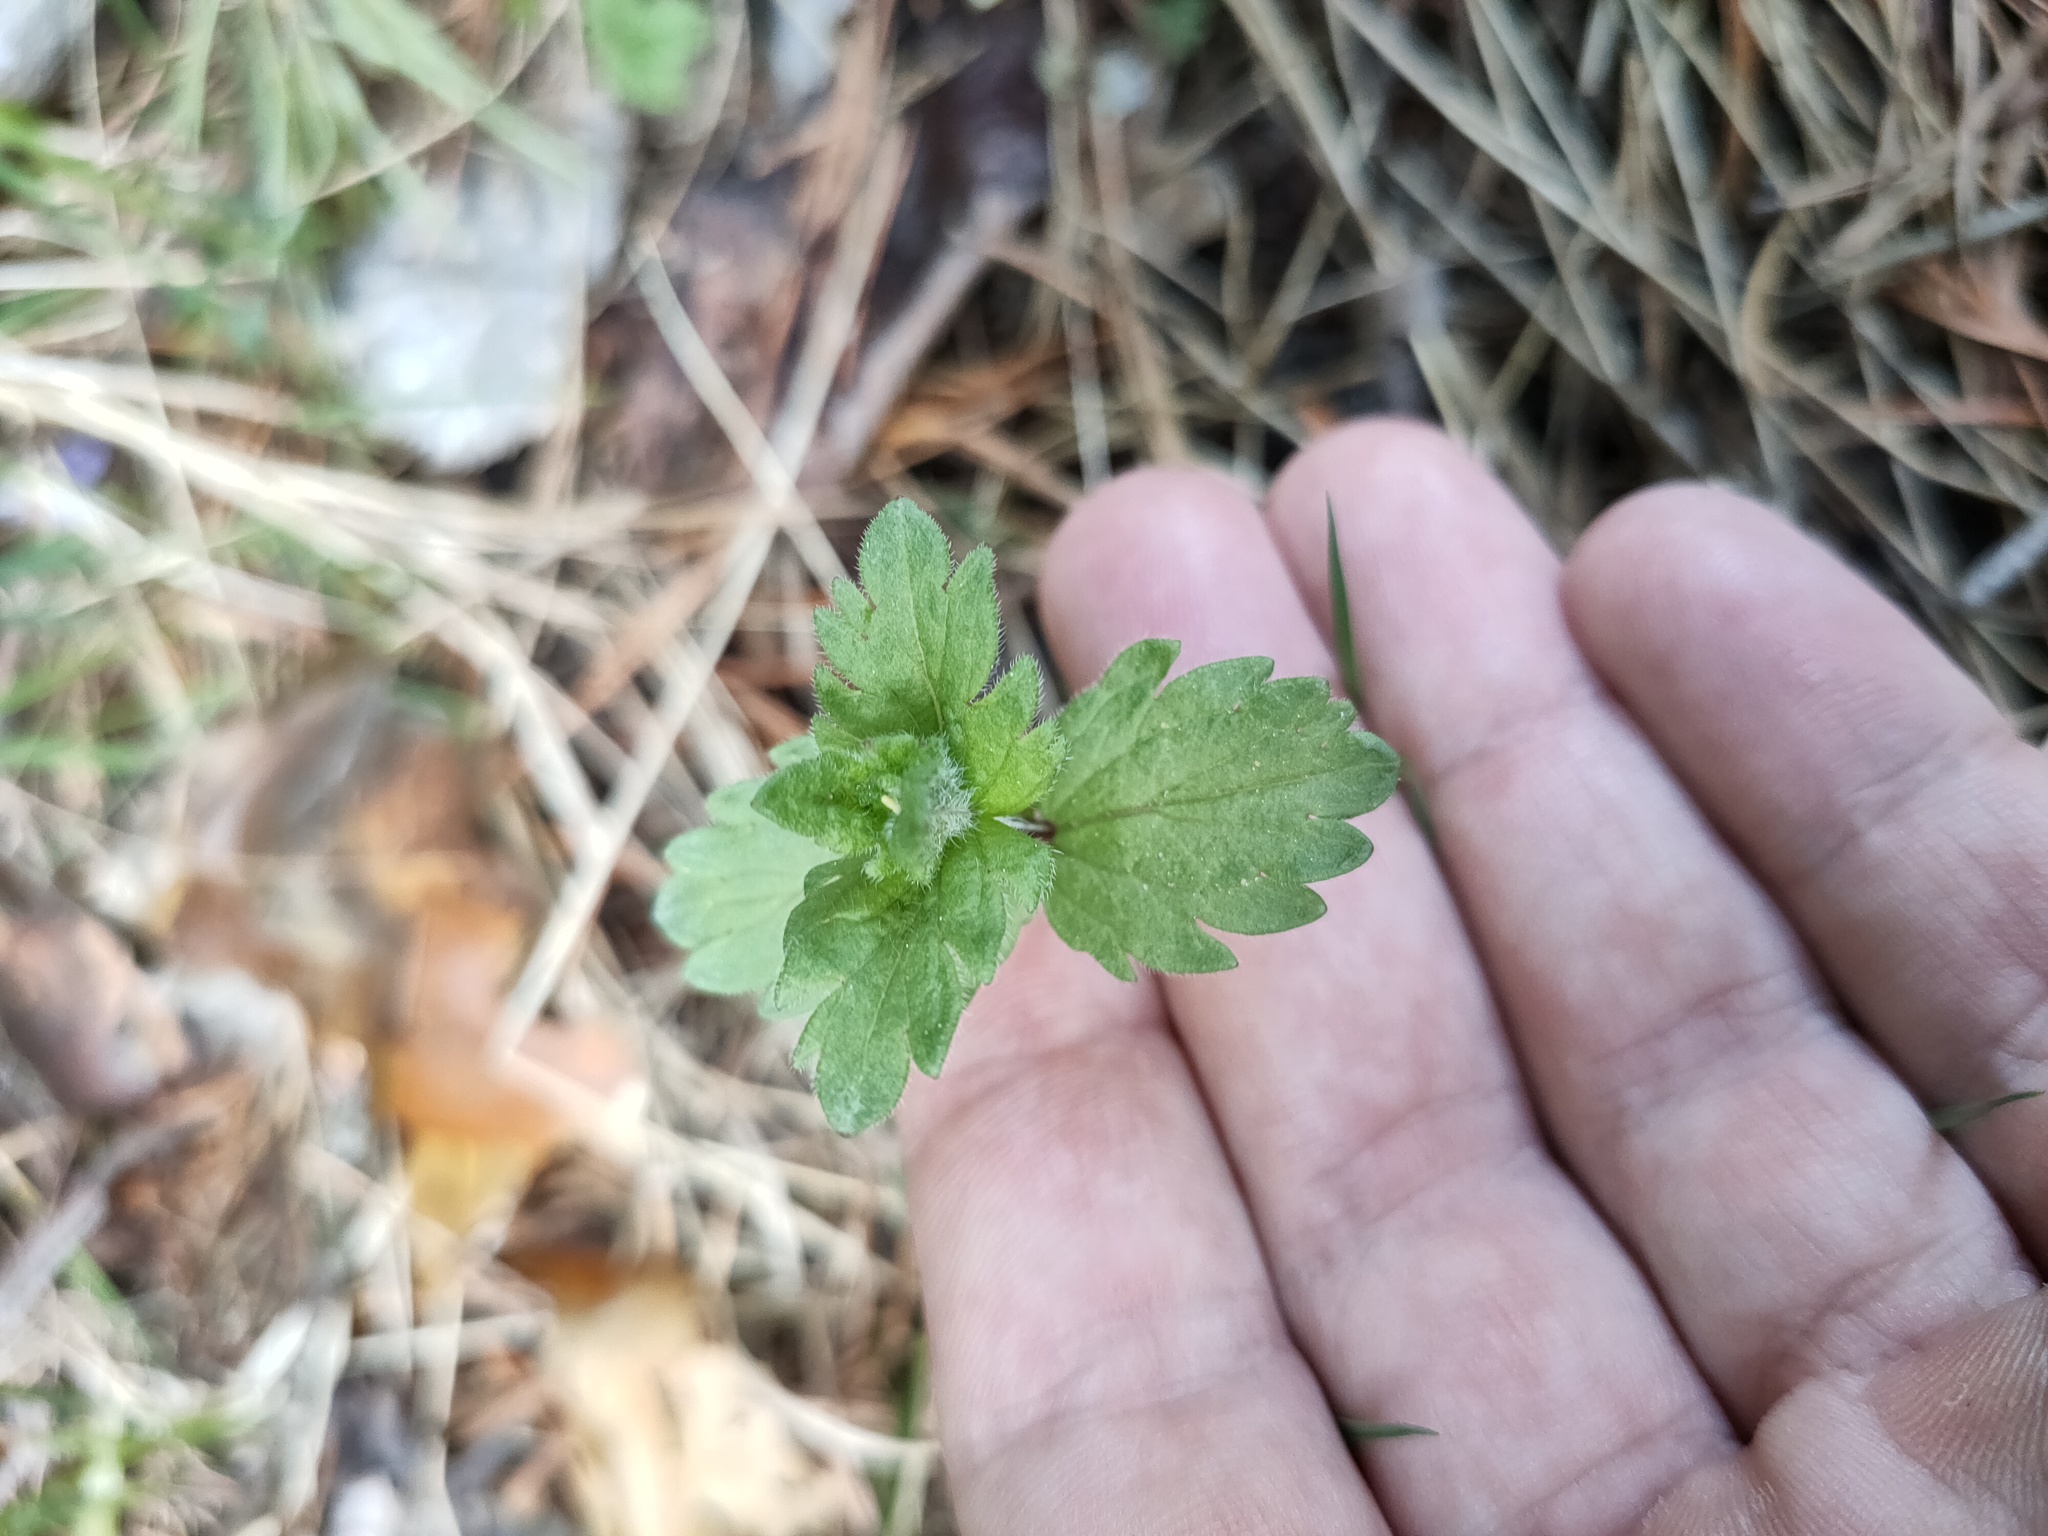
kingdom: Plantae
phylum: Tracheophyta
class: Magnoliopsida
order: Lamiales
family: Plantaginaceae
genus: Veronica
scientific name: Veronica chamaedrys
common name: Germander speedwell
